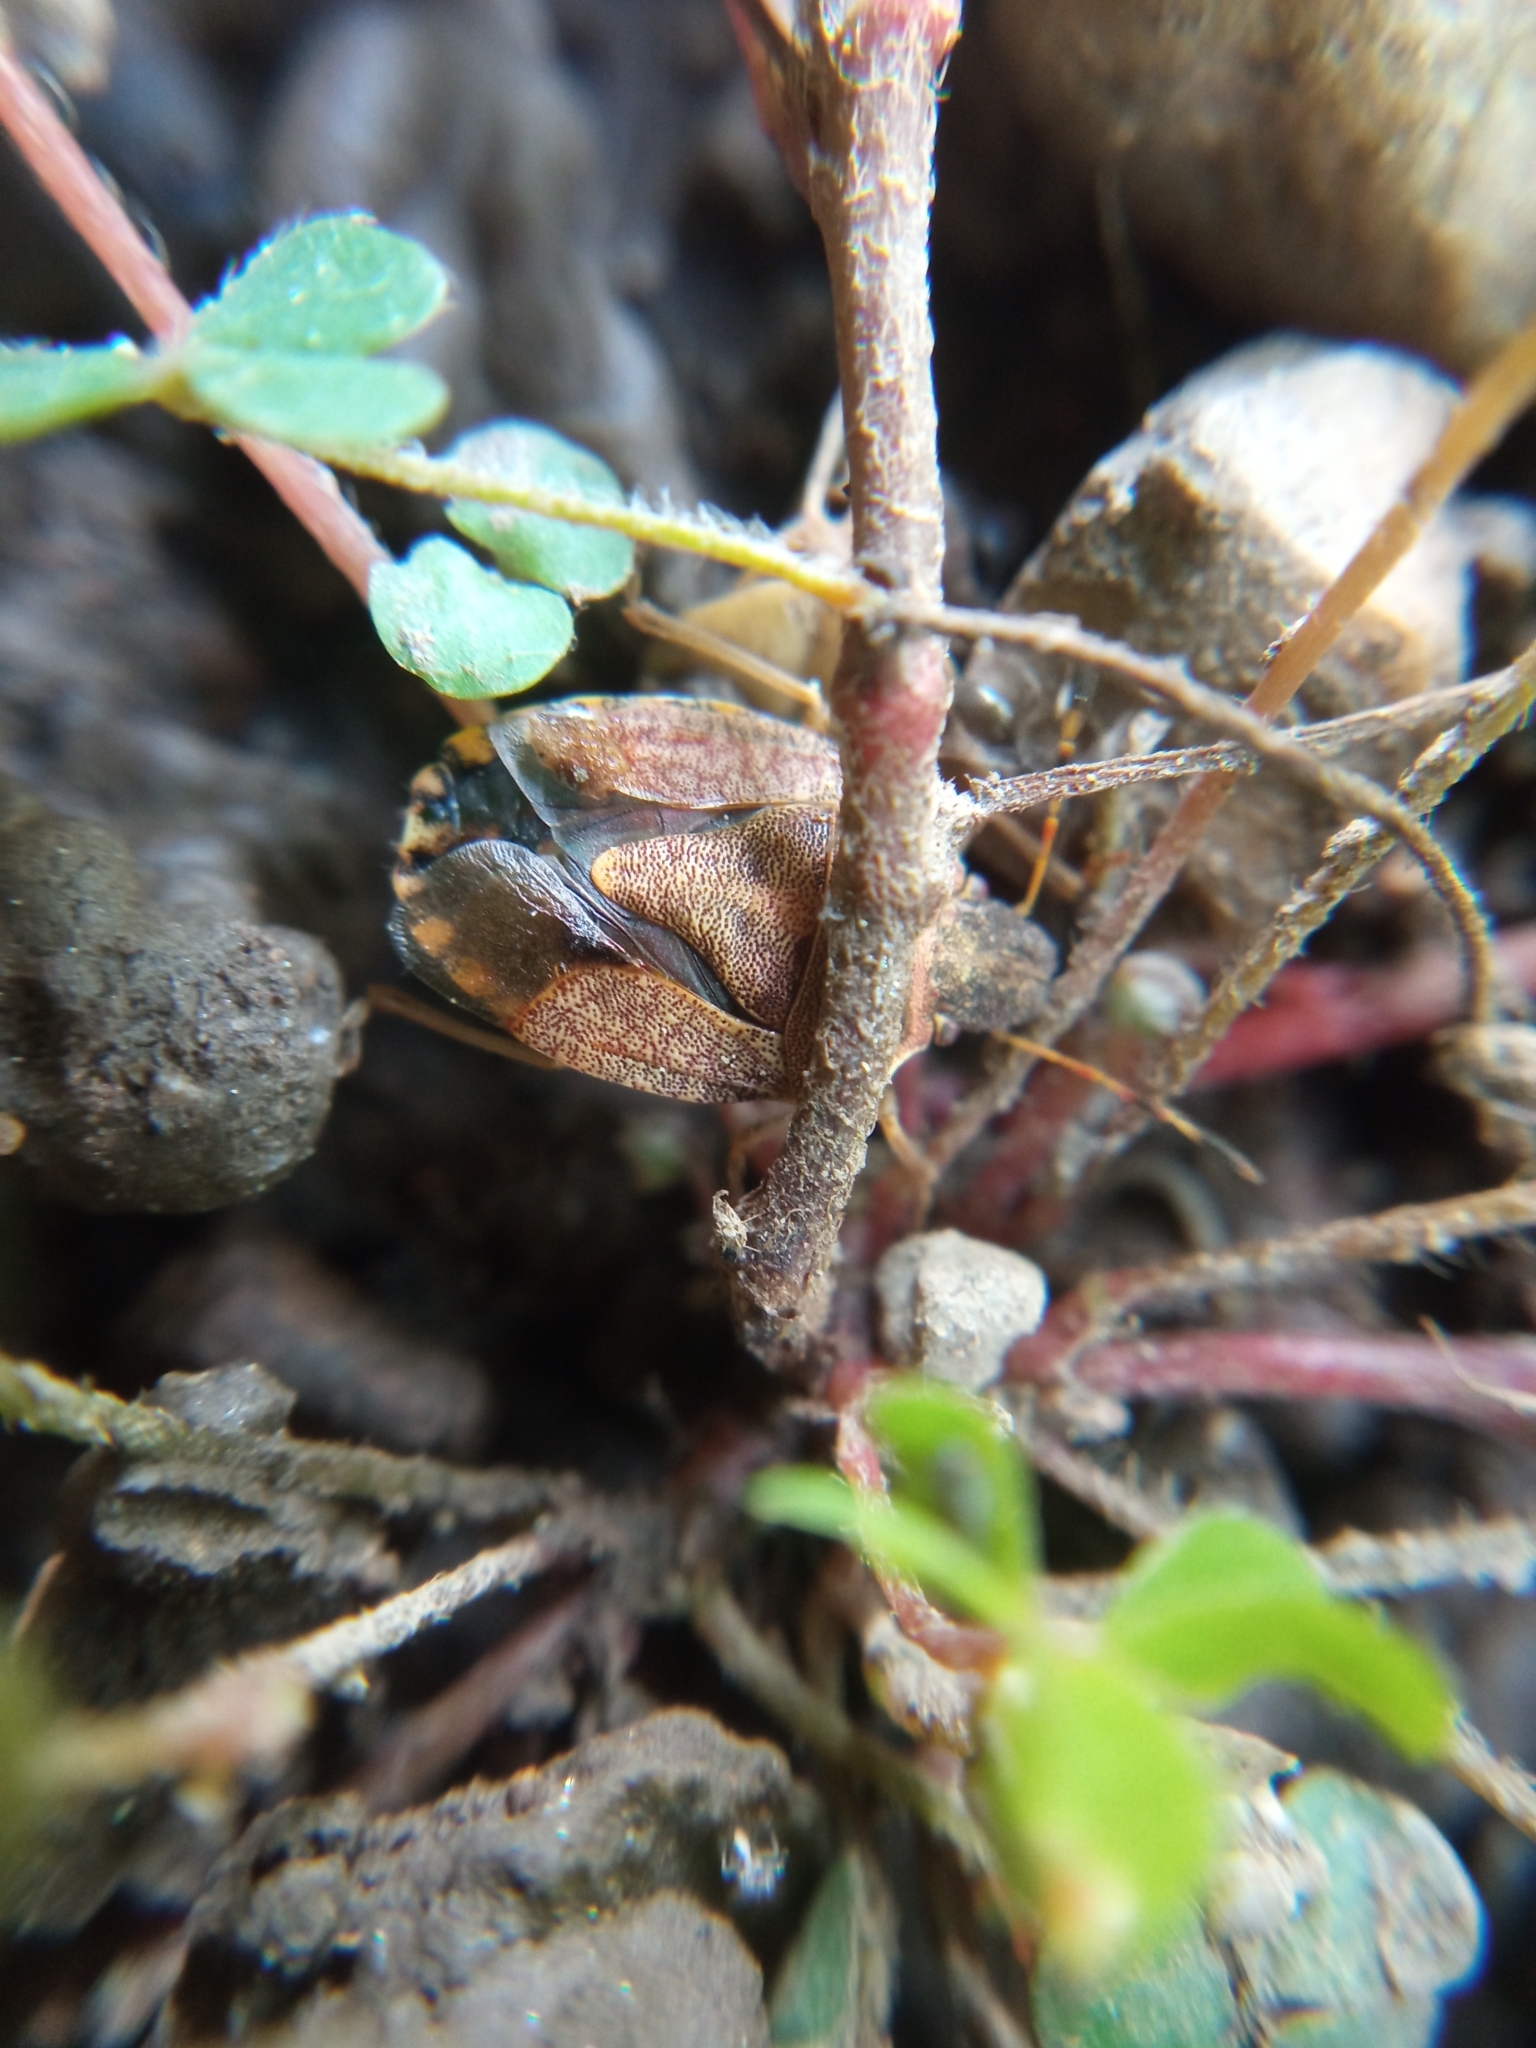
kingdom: Animalia
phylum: Arthropoda
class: Insecta
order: Hemiptera
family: Pentatomidae
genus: Holcostethus
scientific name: Holcostethus strictus
